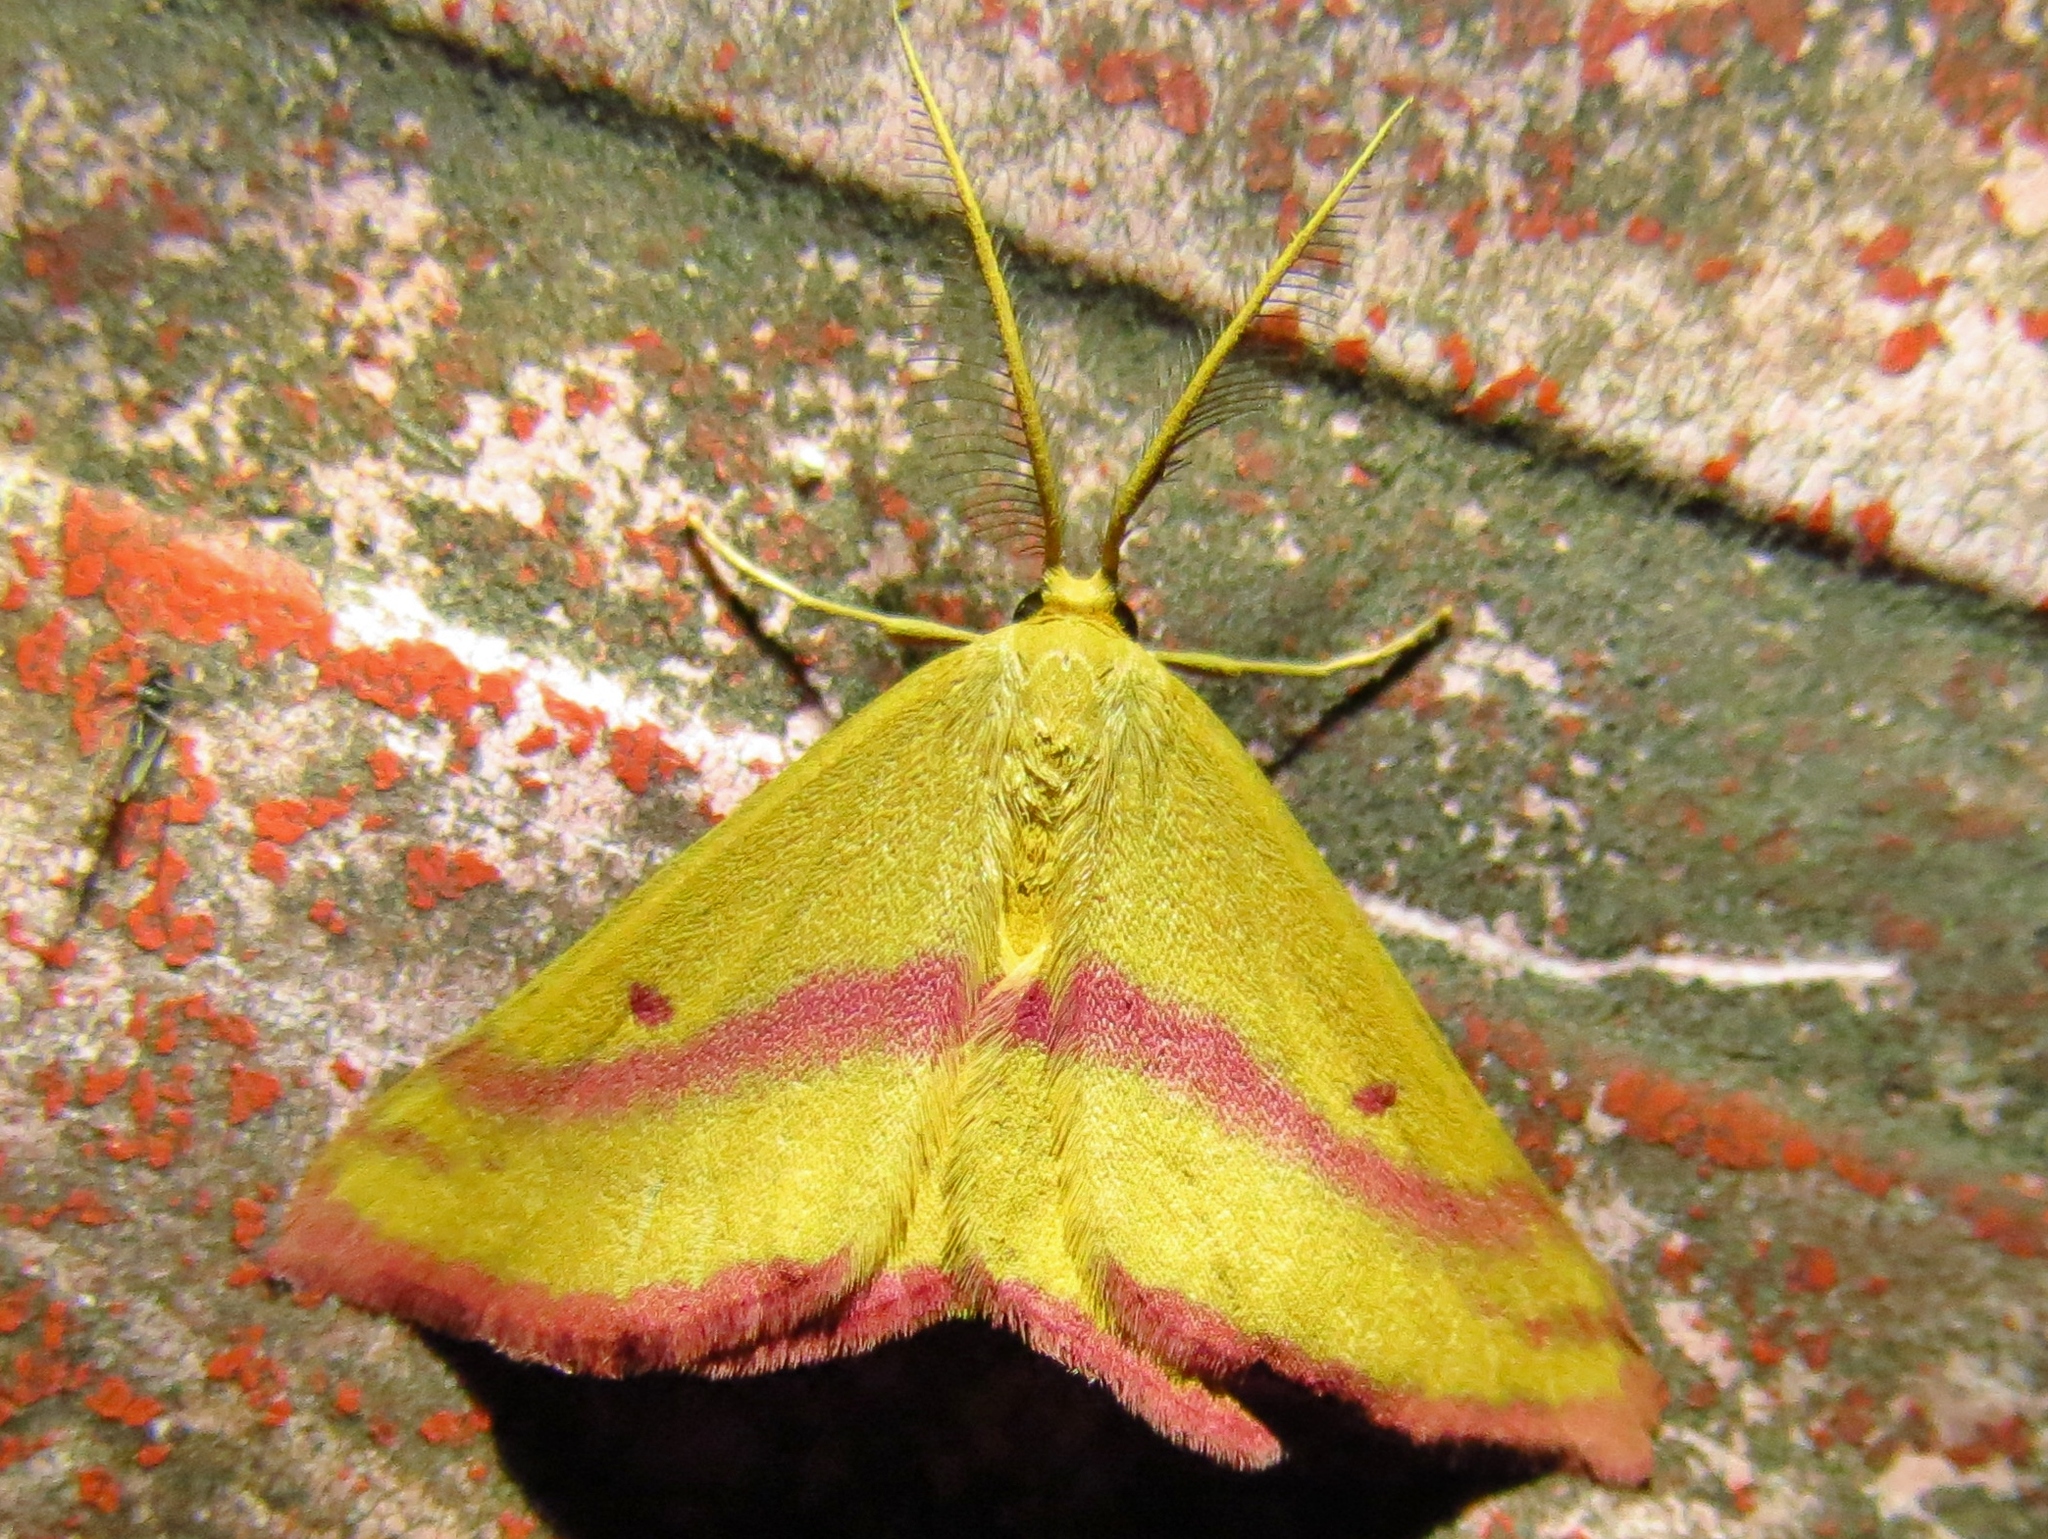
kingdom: Animalia
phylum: Arthropoda
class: Insecta
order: Lepidoptera
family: Geometridae
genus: Haematopis
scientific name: Haematopis grataria
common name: Chickweed geometer
